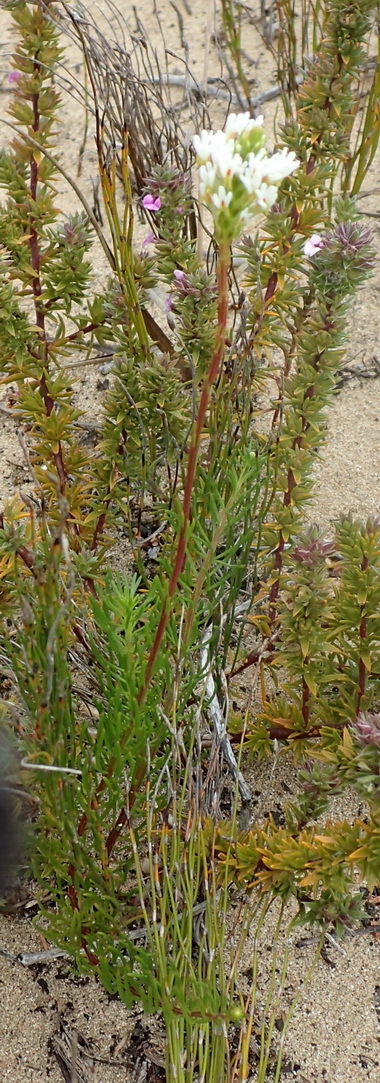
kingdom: Plantae
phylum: Tracheophyta
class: Magnoliopsida
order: Lamiales
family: Scrophulariaceae
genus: Hebenstretia
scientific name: Hebenstretia integrifolia
